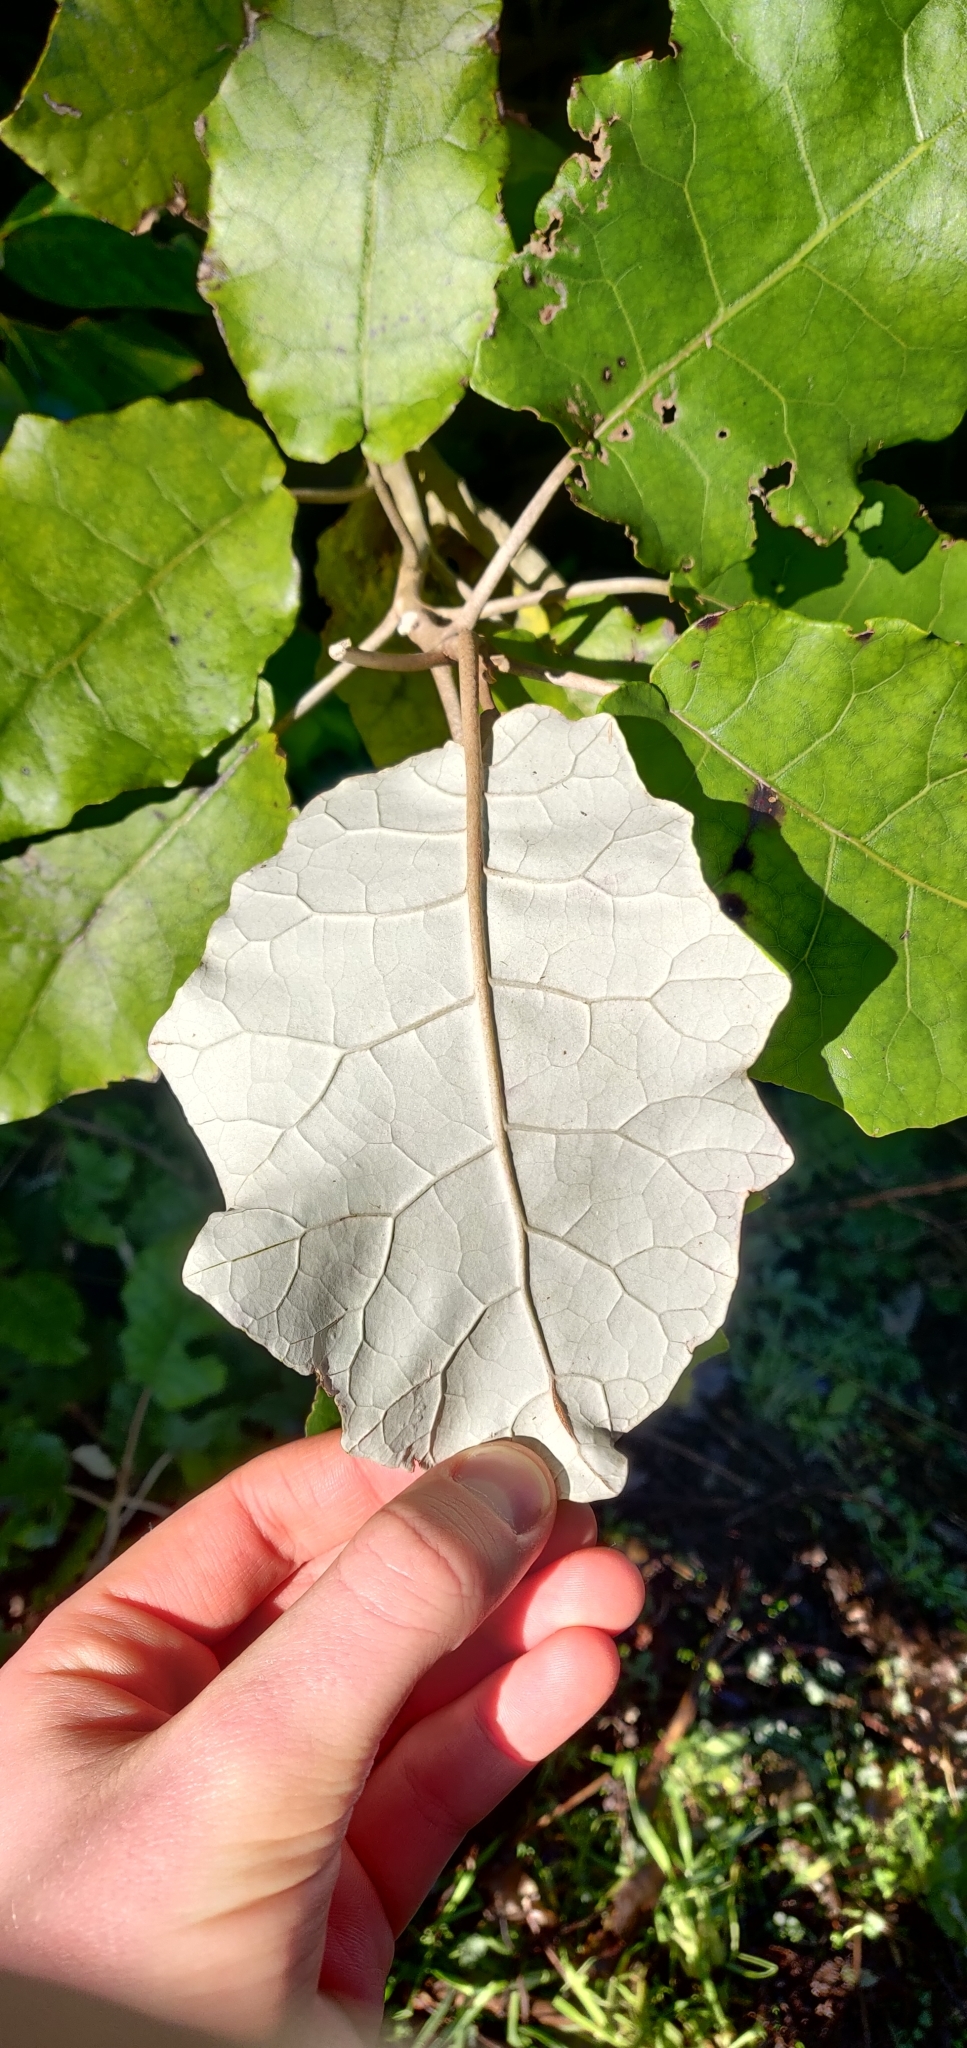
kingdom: Plantae
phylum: Tracheophyta
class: Magnoliopsida
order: Asterales
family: Asteraceae
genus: Brachyglottis
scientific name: Brachyglottis repanda
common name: Hedge ragwort
